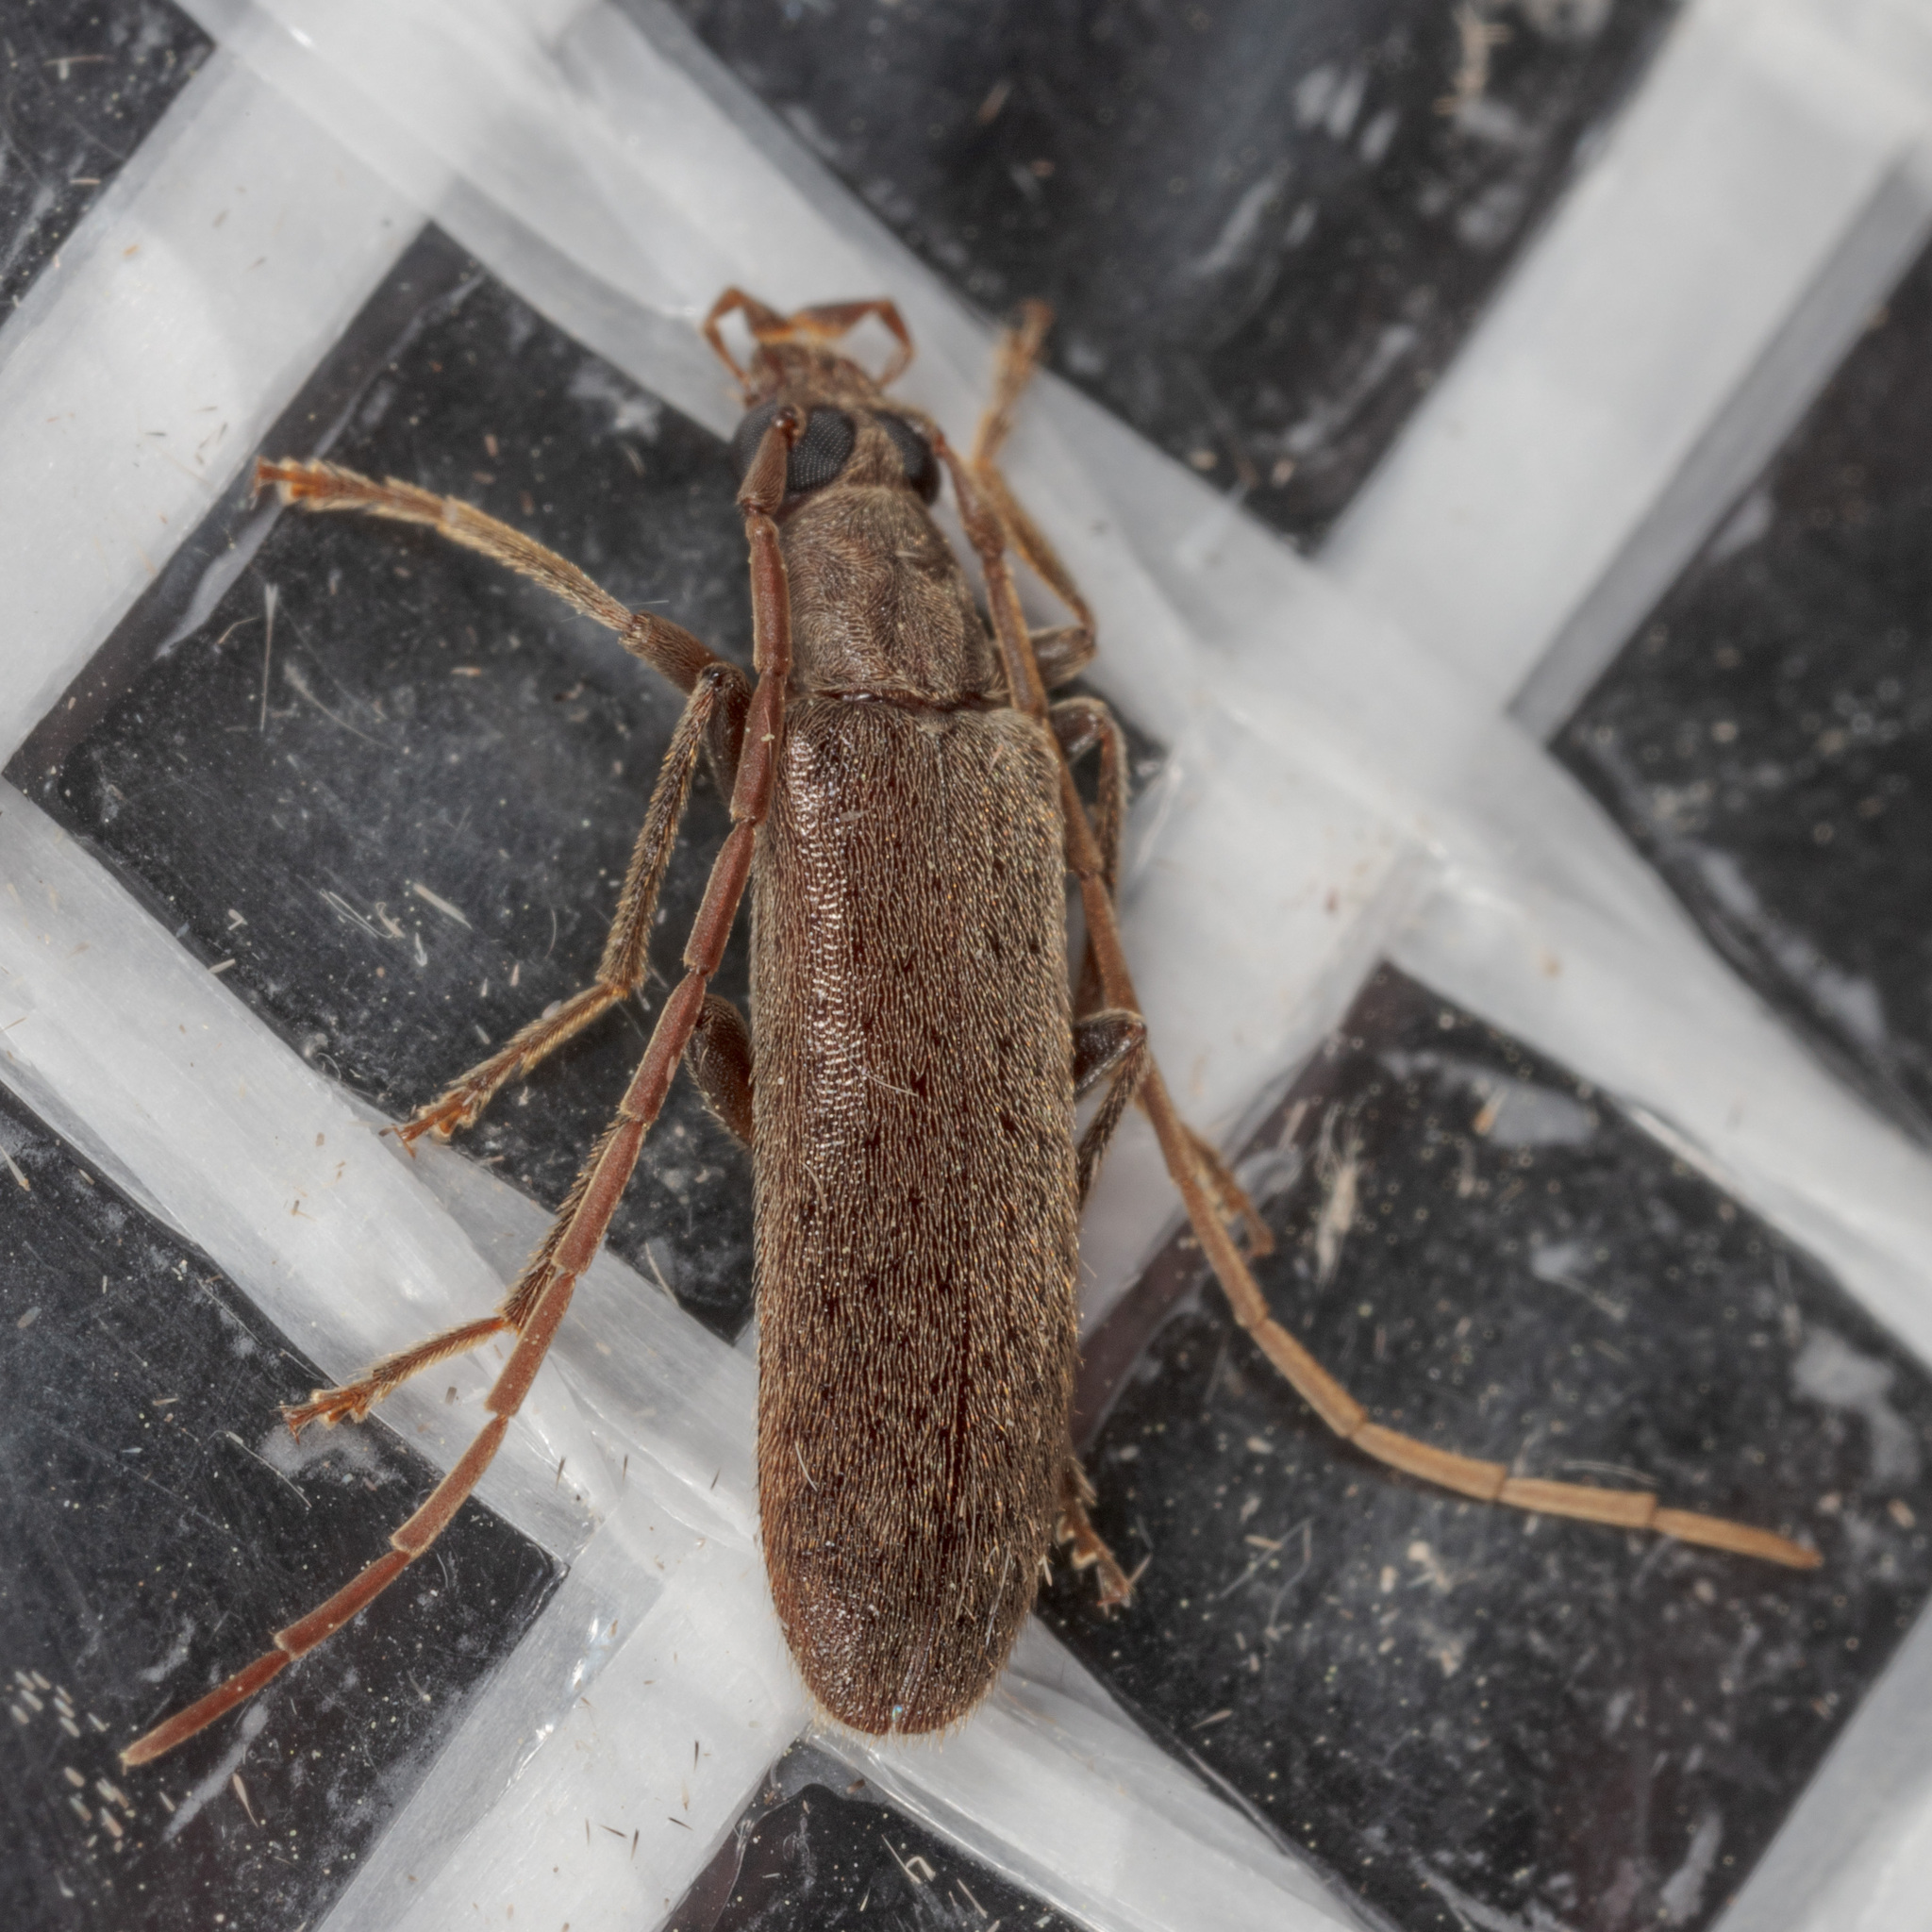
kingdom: Animalia
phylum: Arthropoda
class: Insecta
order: Coleoptera
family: Oedemeridae
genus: Sparedrus
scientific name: Sparedrus aspersus
